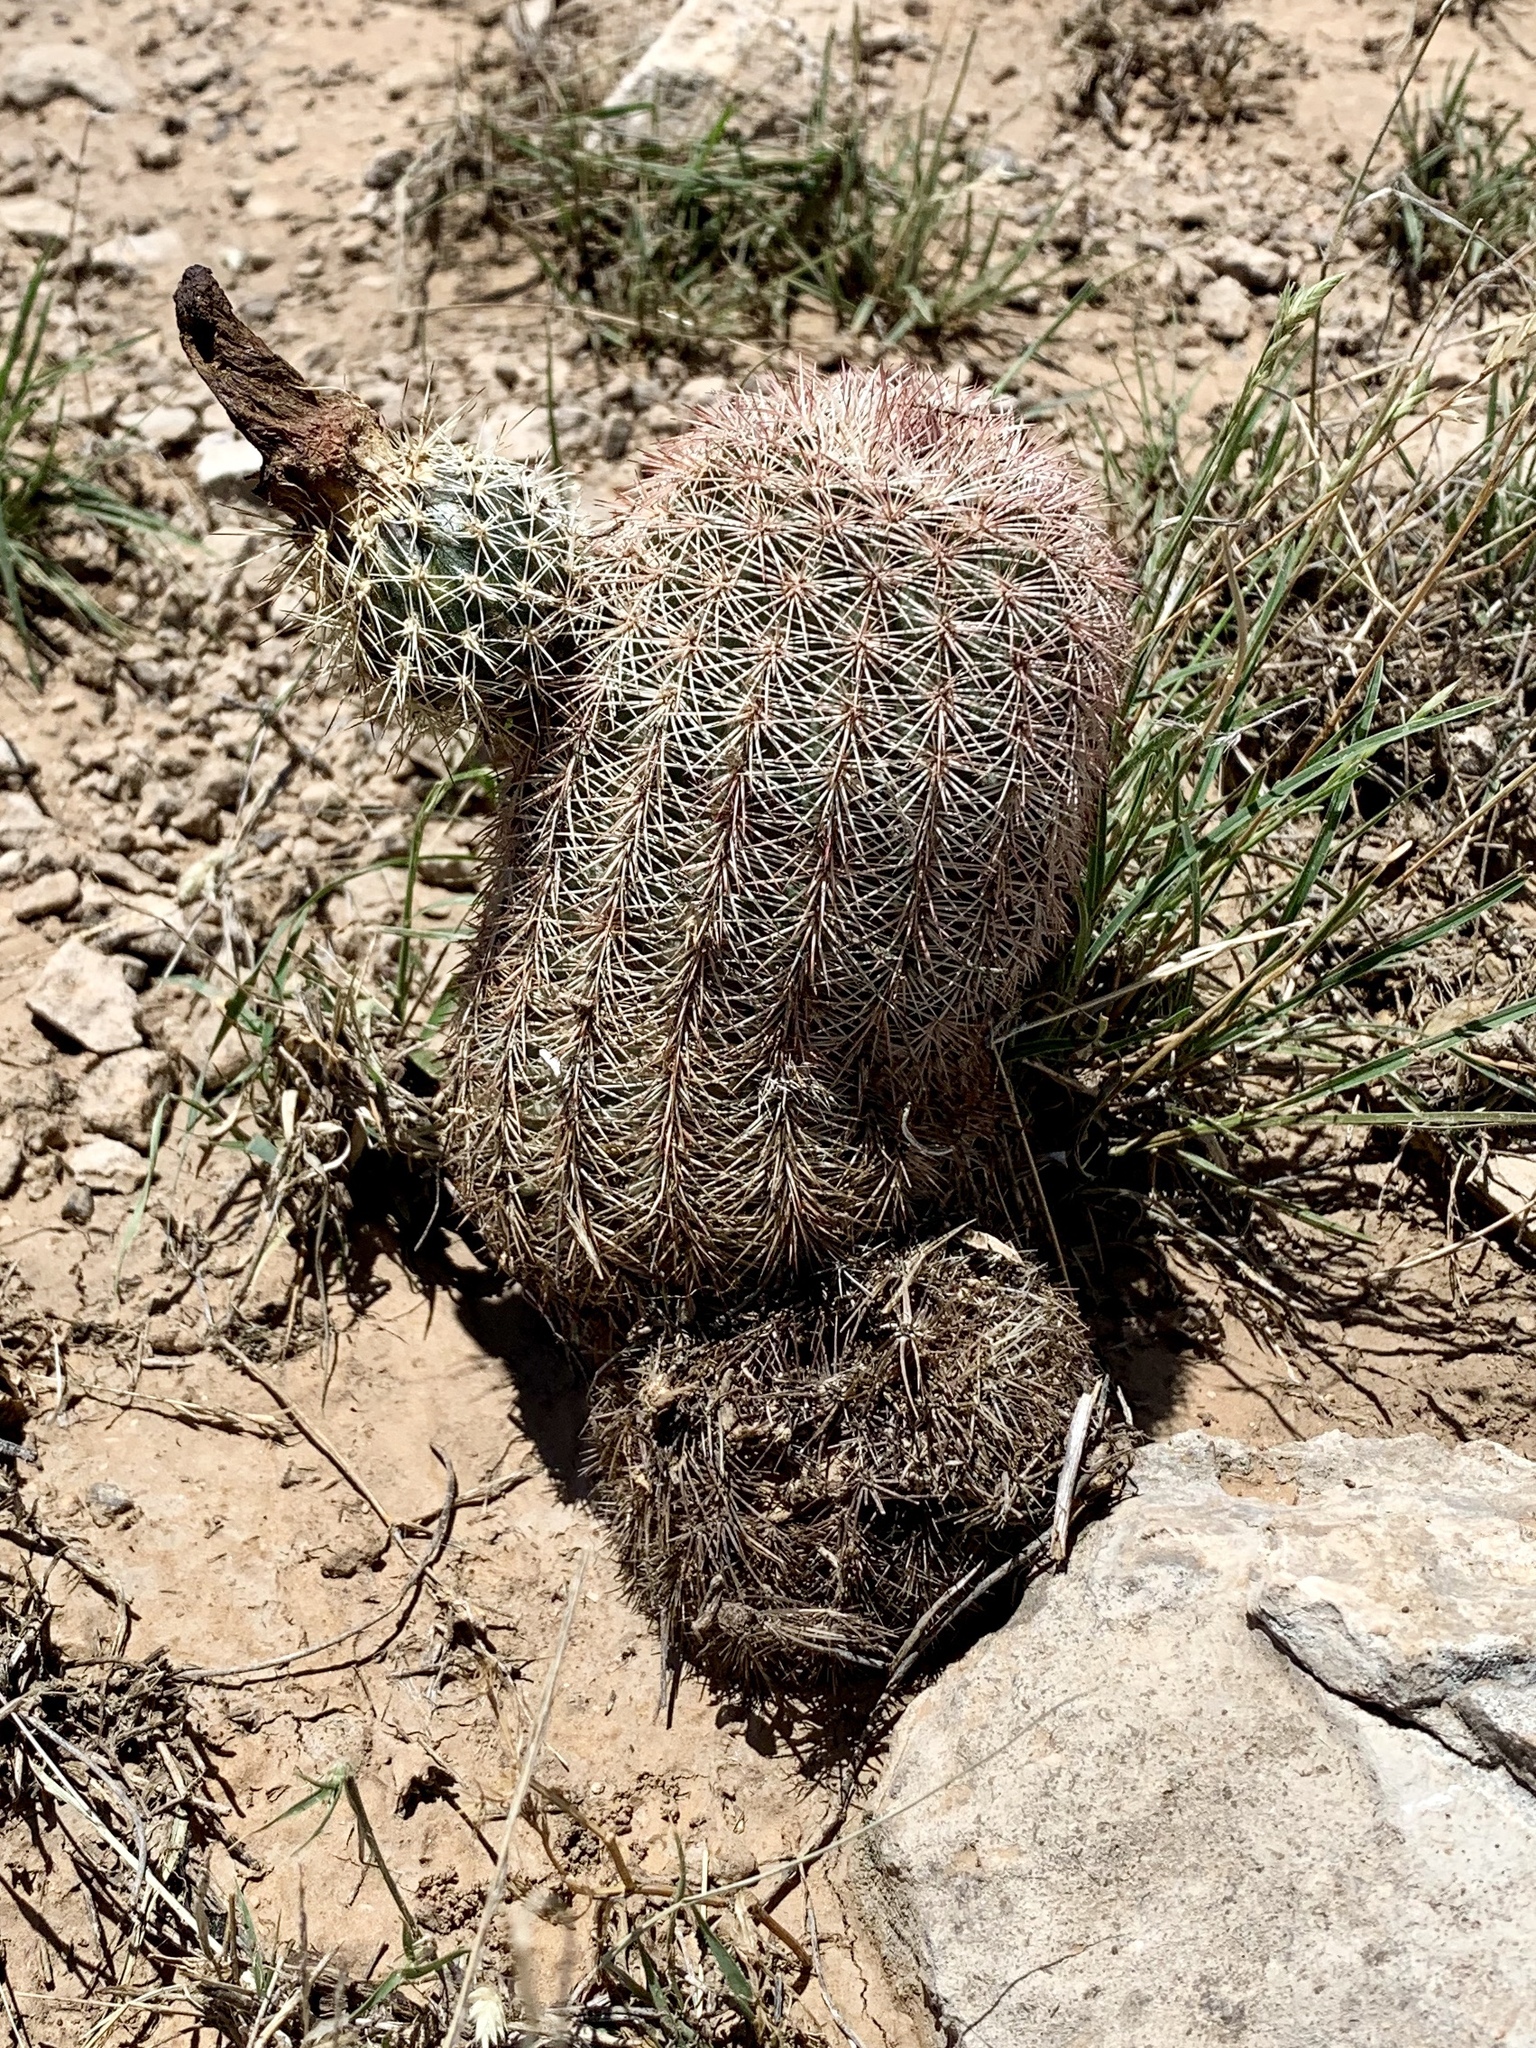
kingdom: Plantae
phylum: Tracheophyta
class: Magnoliopsida
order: Caryophyllales
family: Cactaceae
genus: Echinocereus
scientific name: Echinocereus dasyacanthus
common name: Spiny hedgehog cactus
